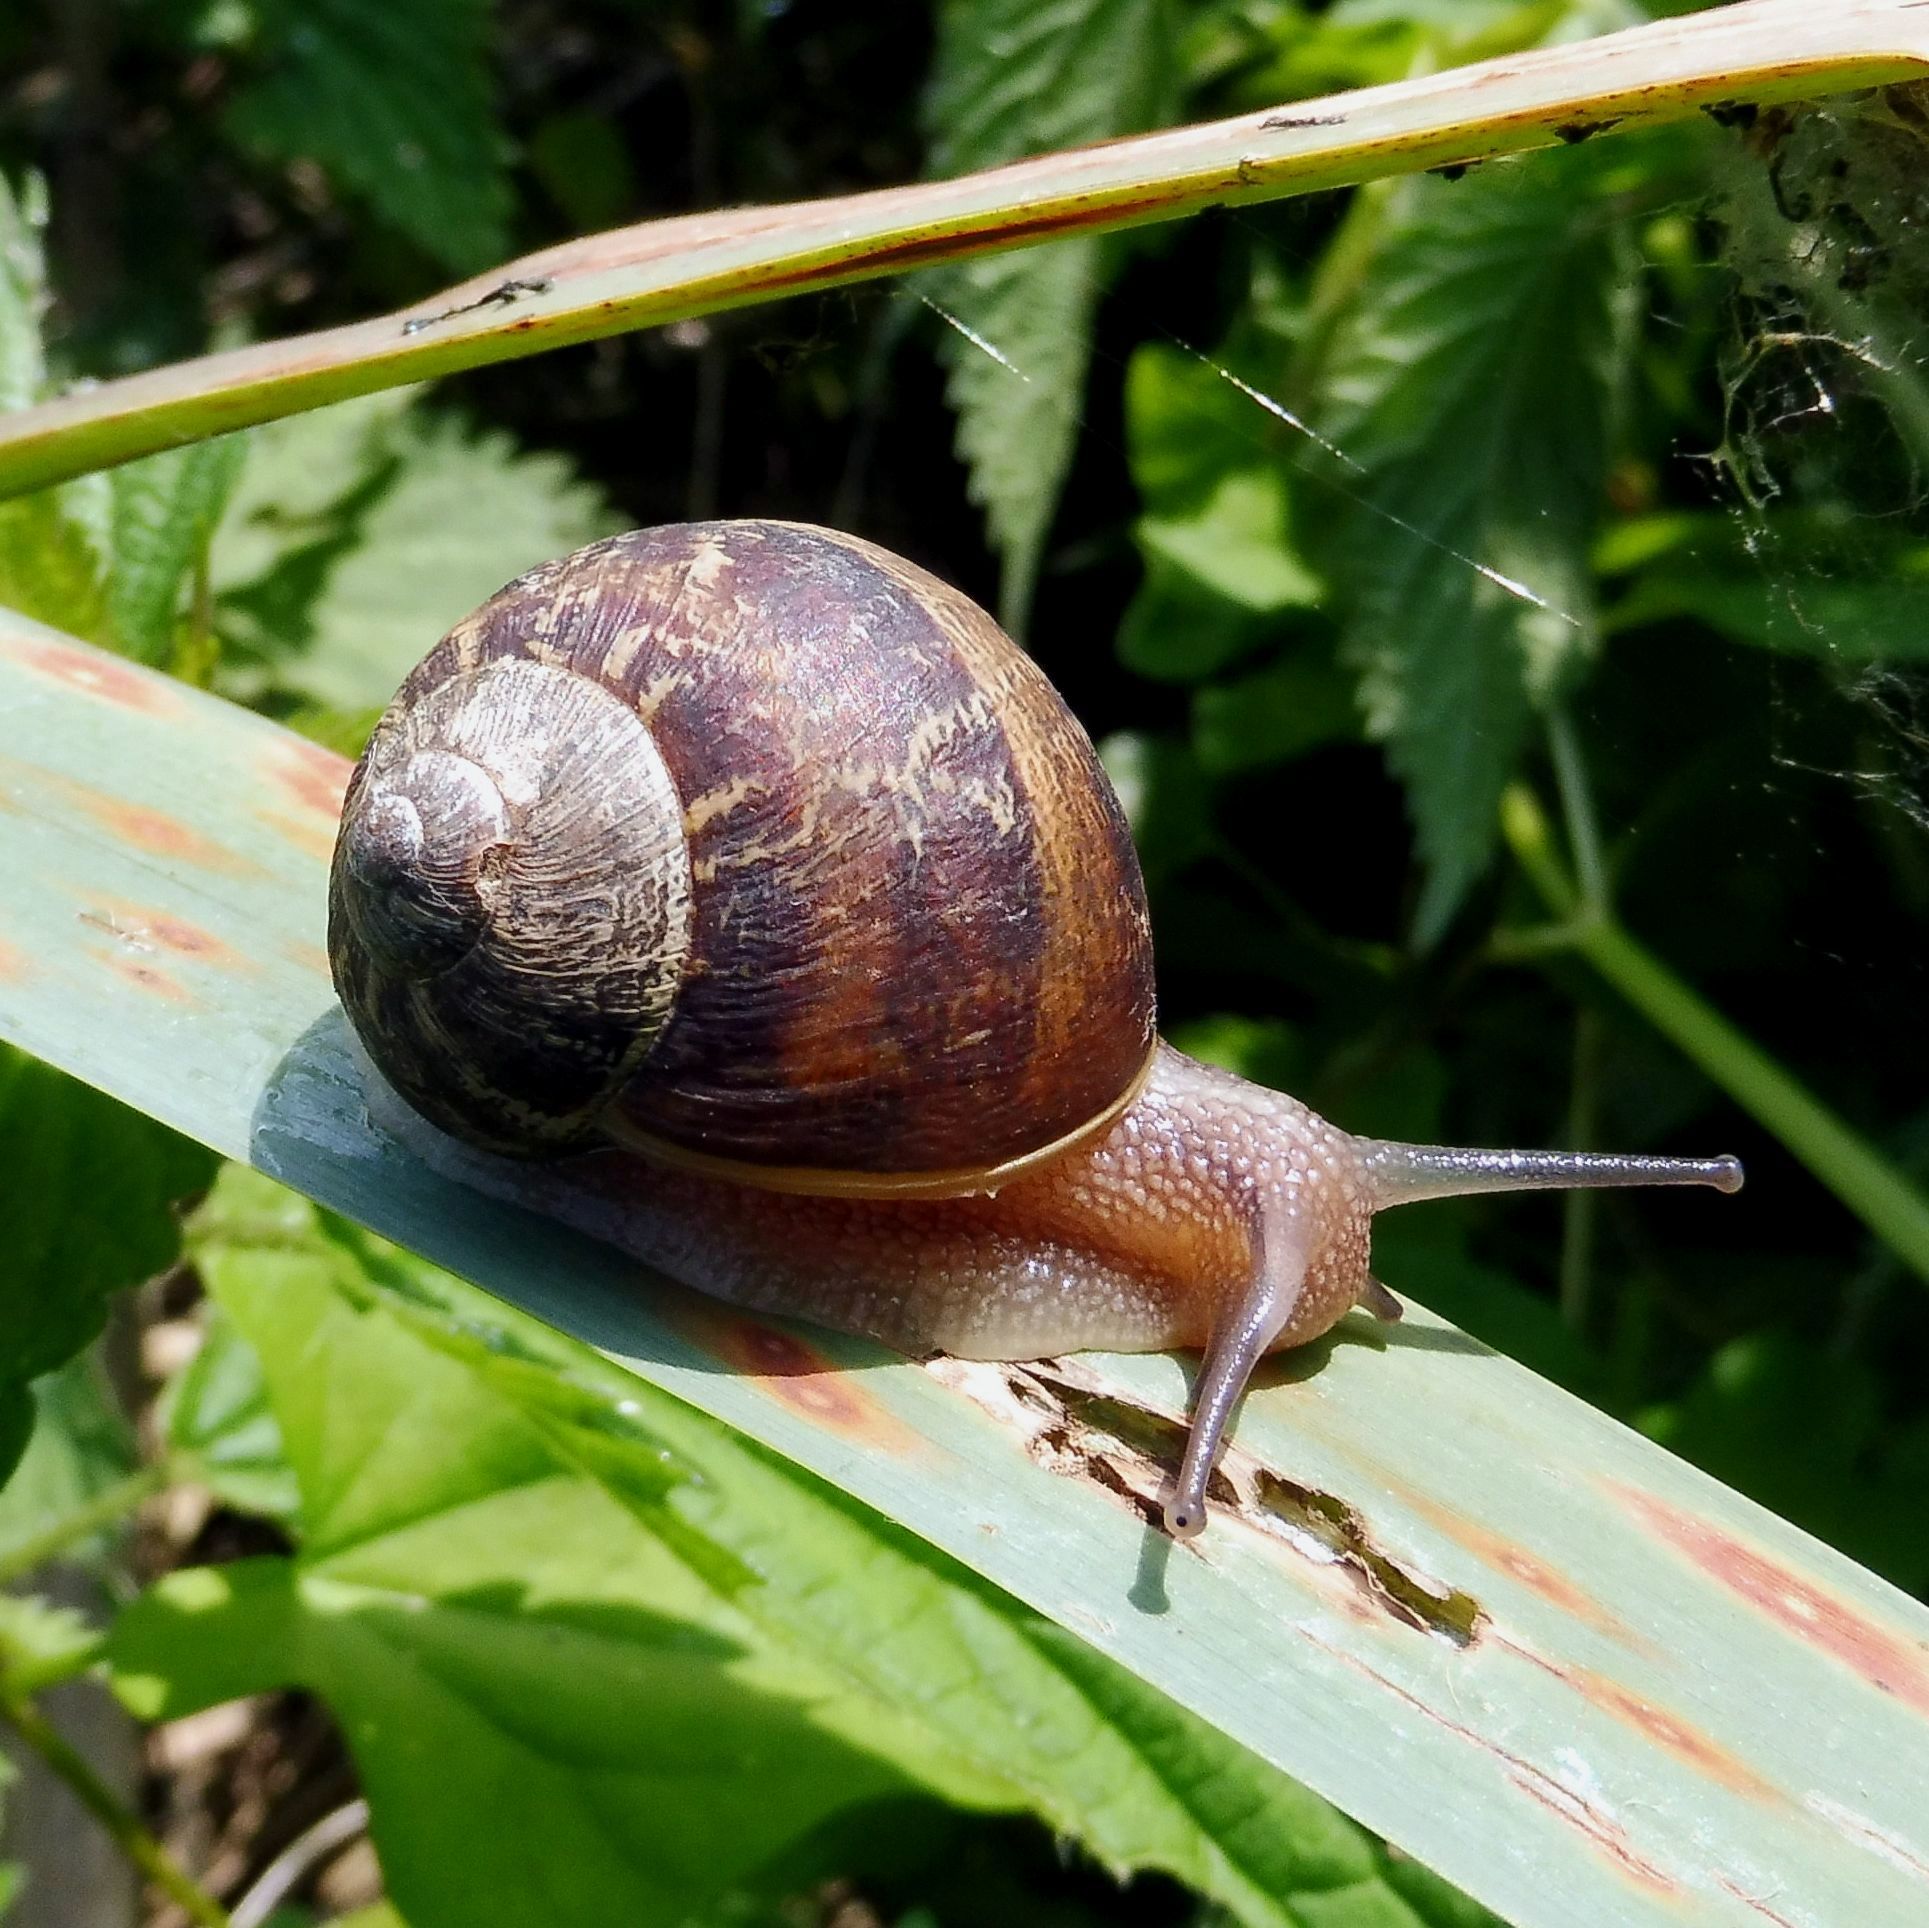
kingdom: Animalia
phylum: Mollusca
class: Gastropoda
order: Stylommatophora
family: Helicidae
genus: Cornu
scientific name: Cornu aspersum
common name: Brown garden snail
